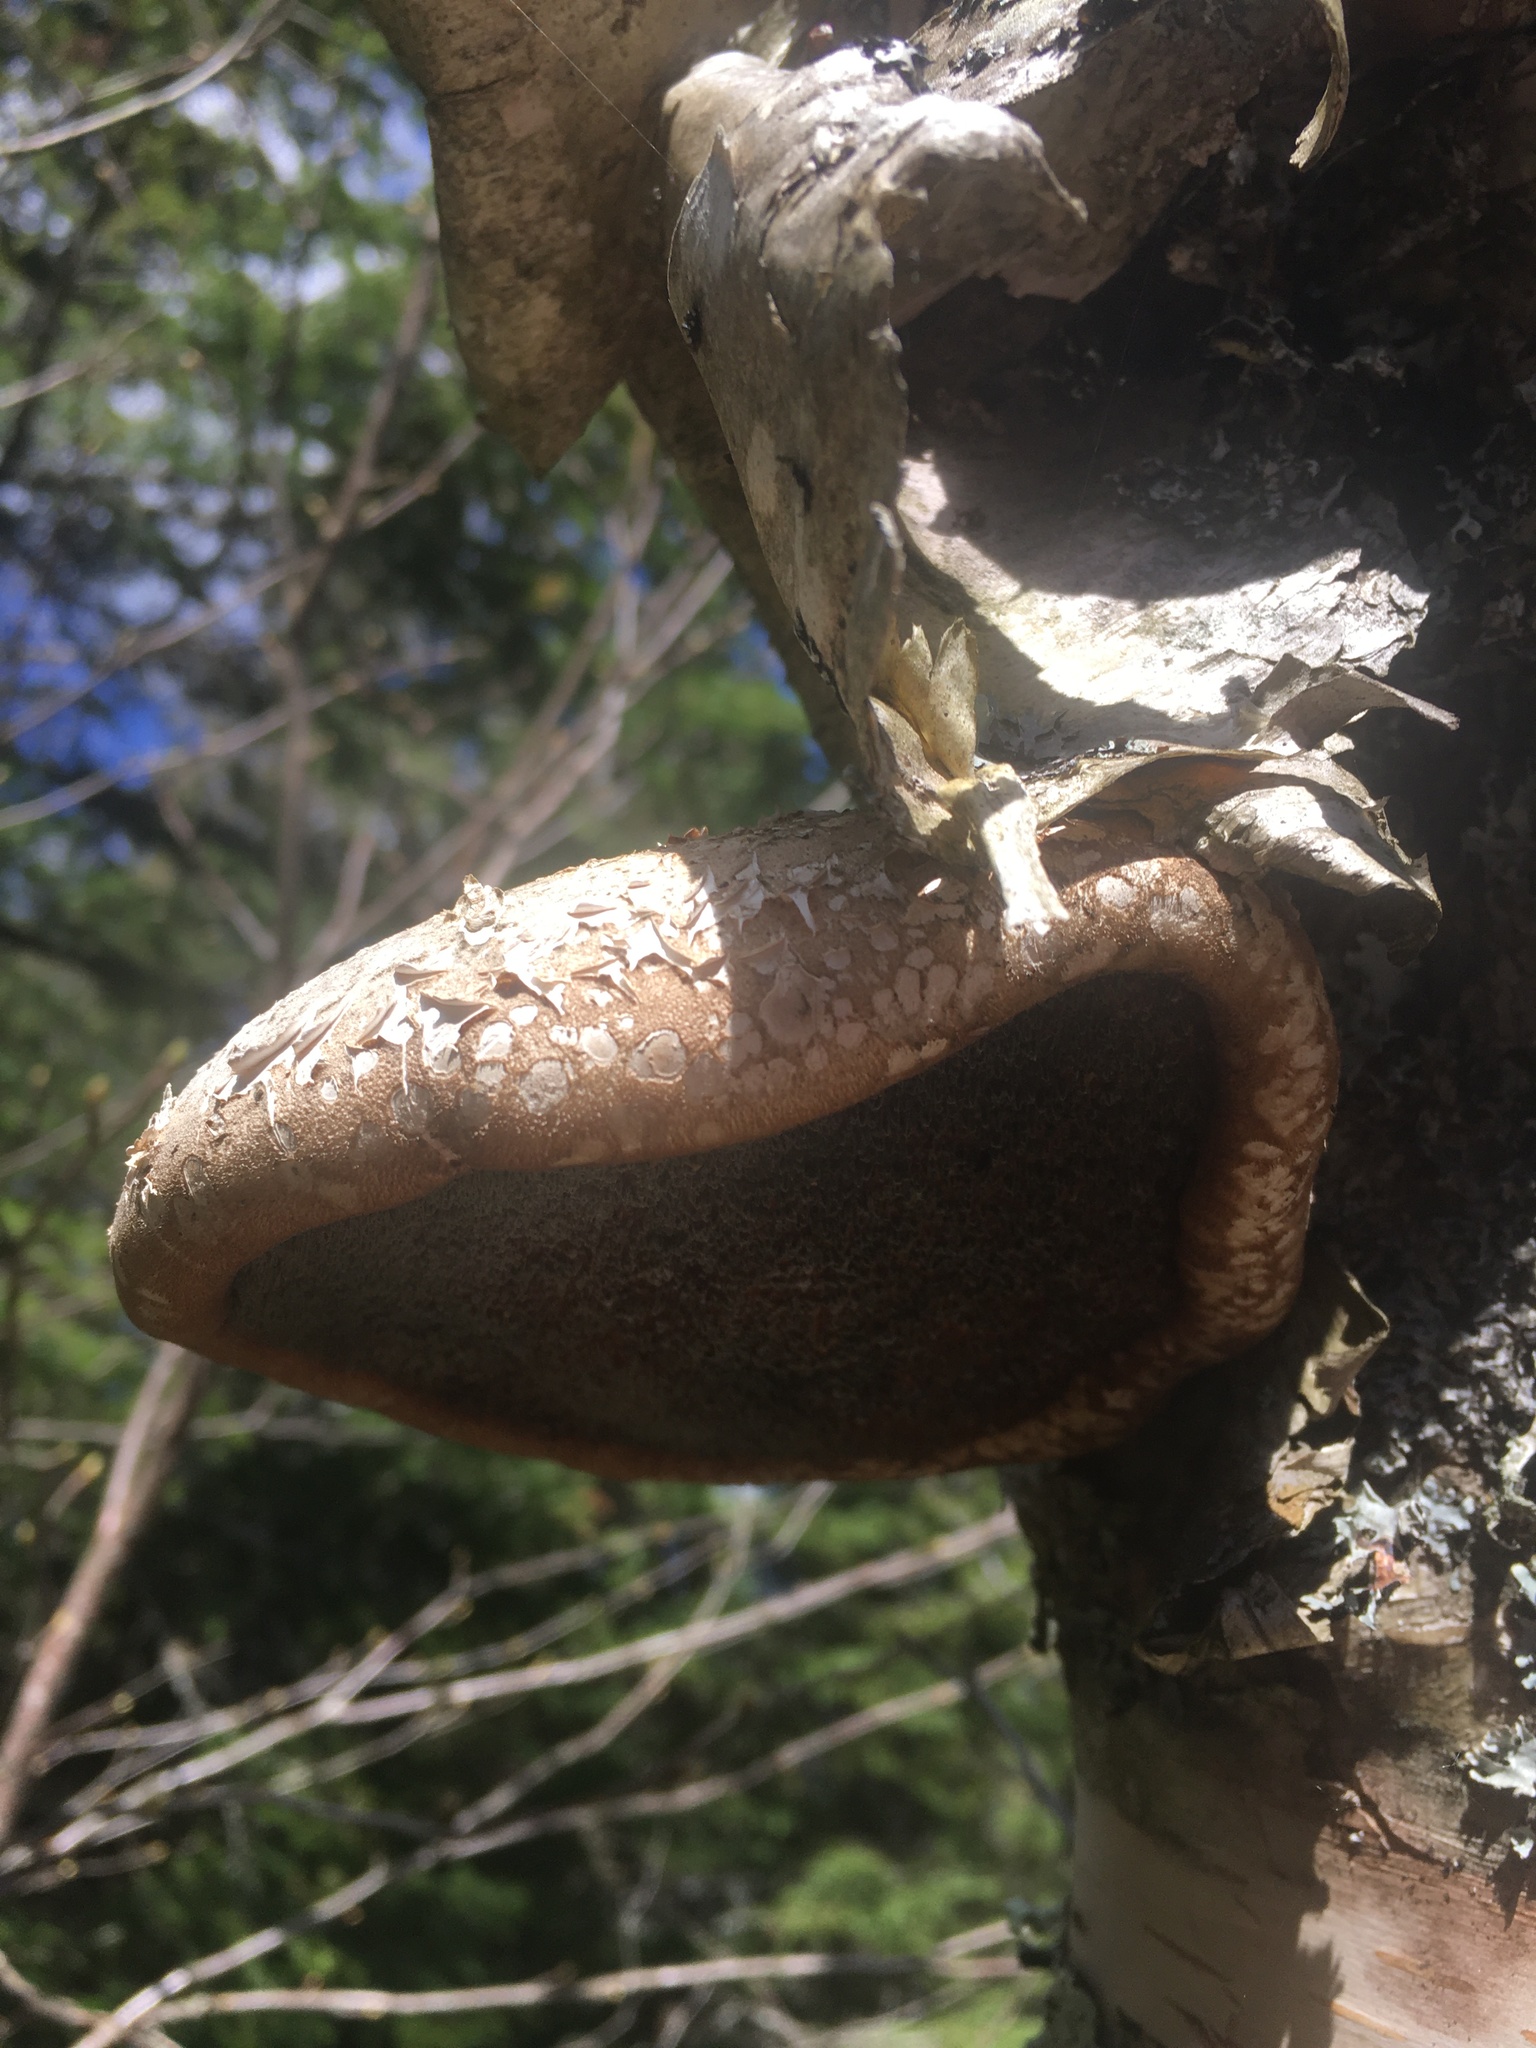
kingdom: Fungi
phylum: Basidiomycota
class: Agaricomycetes
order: Polyporales
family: Fomitopsidaceae
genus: Fomitopsis
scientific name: Fomitopsis betulina
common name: Birch polypore
